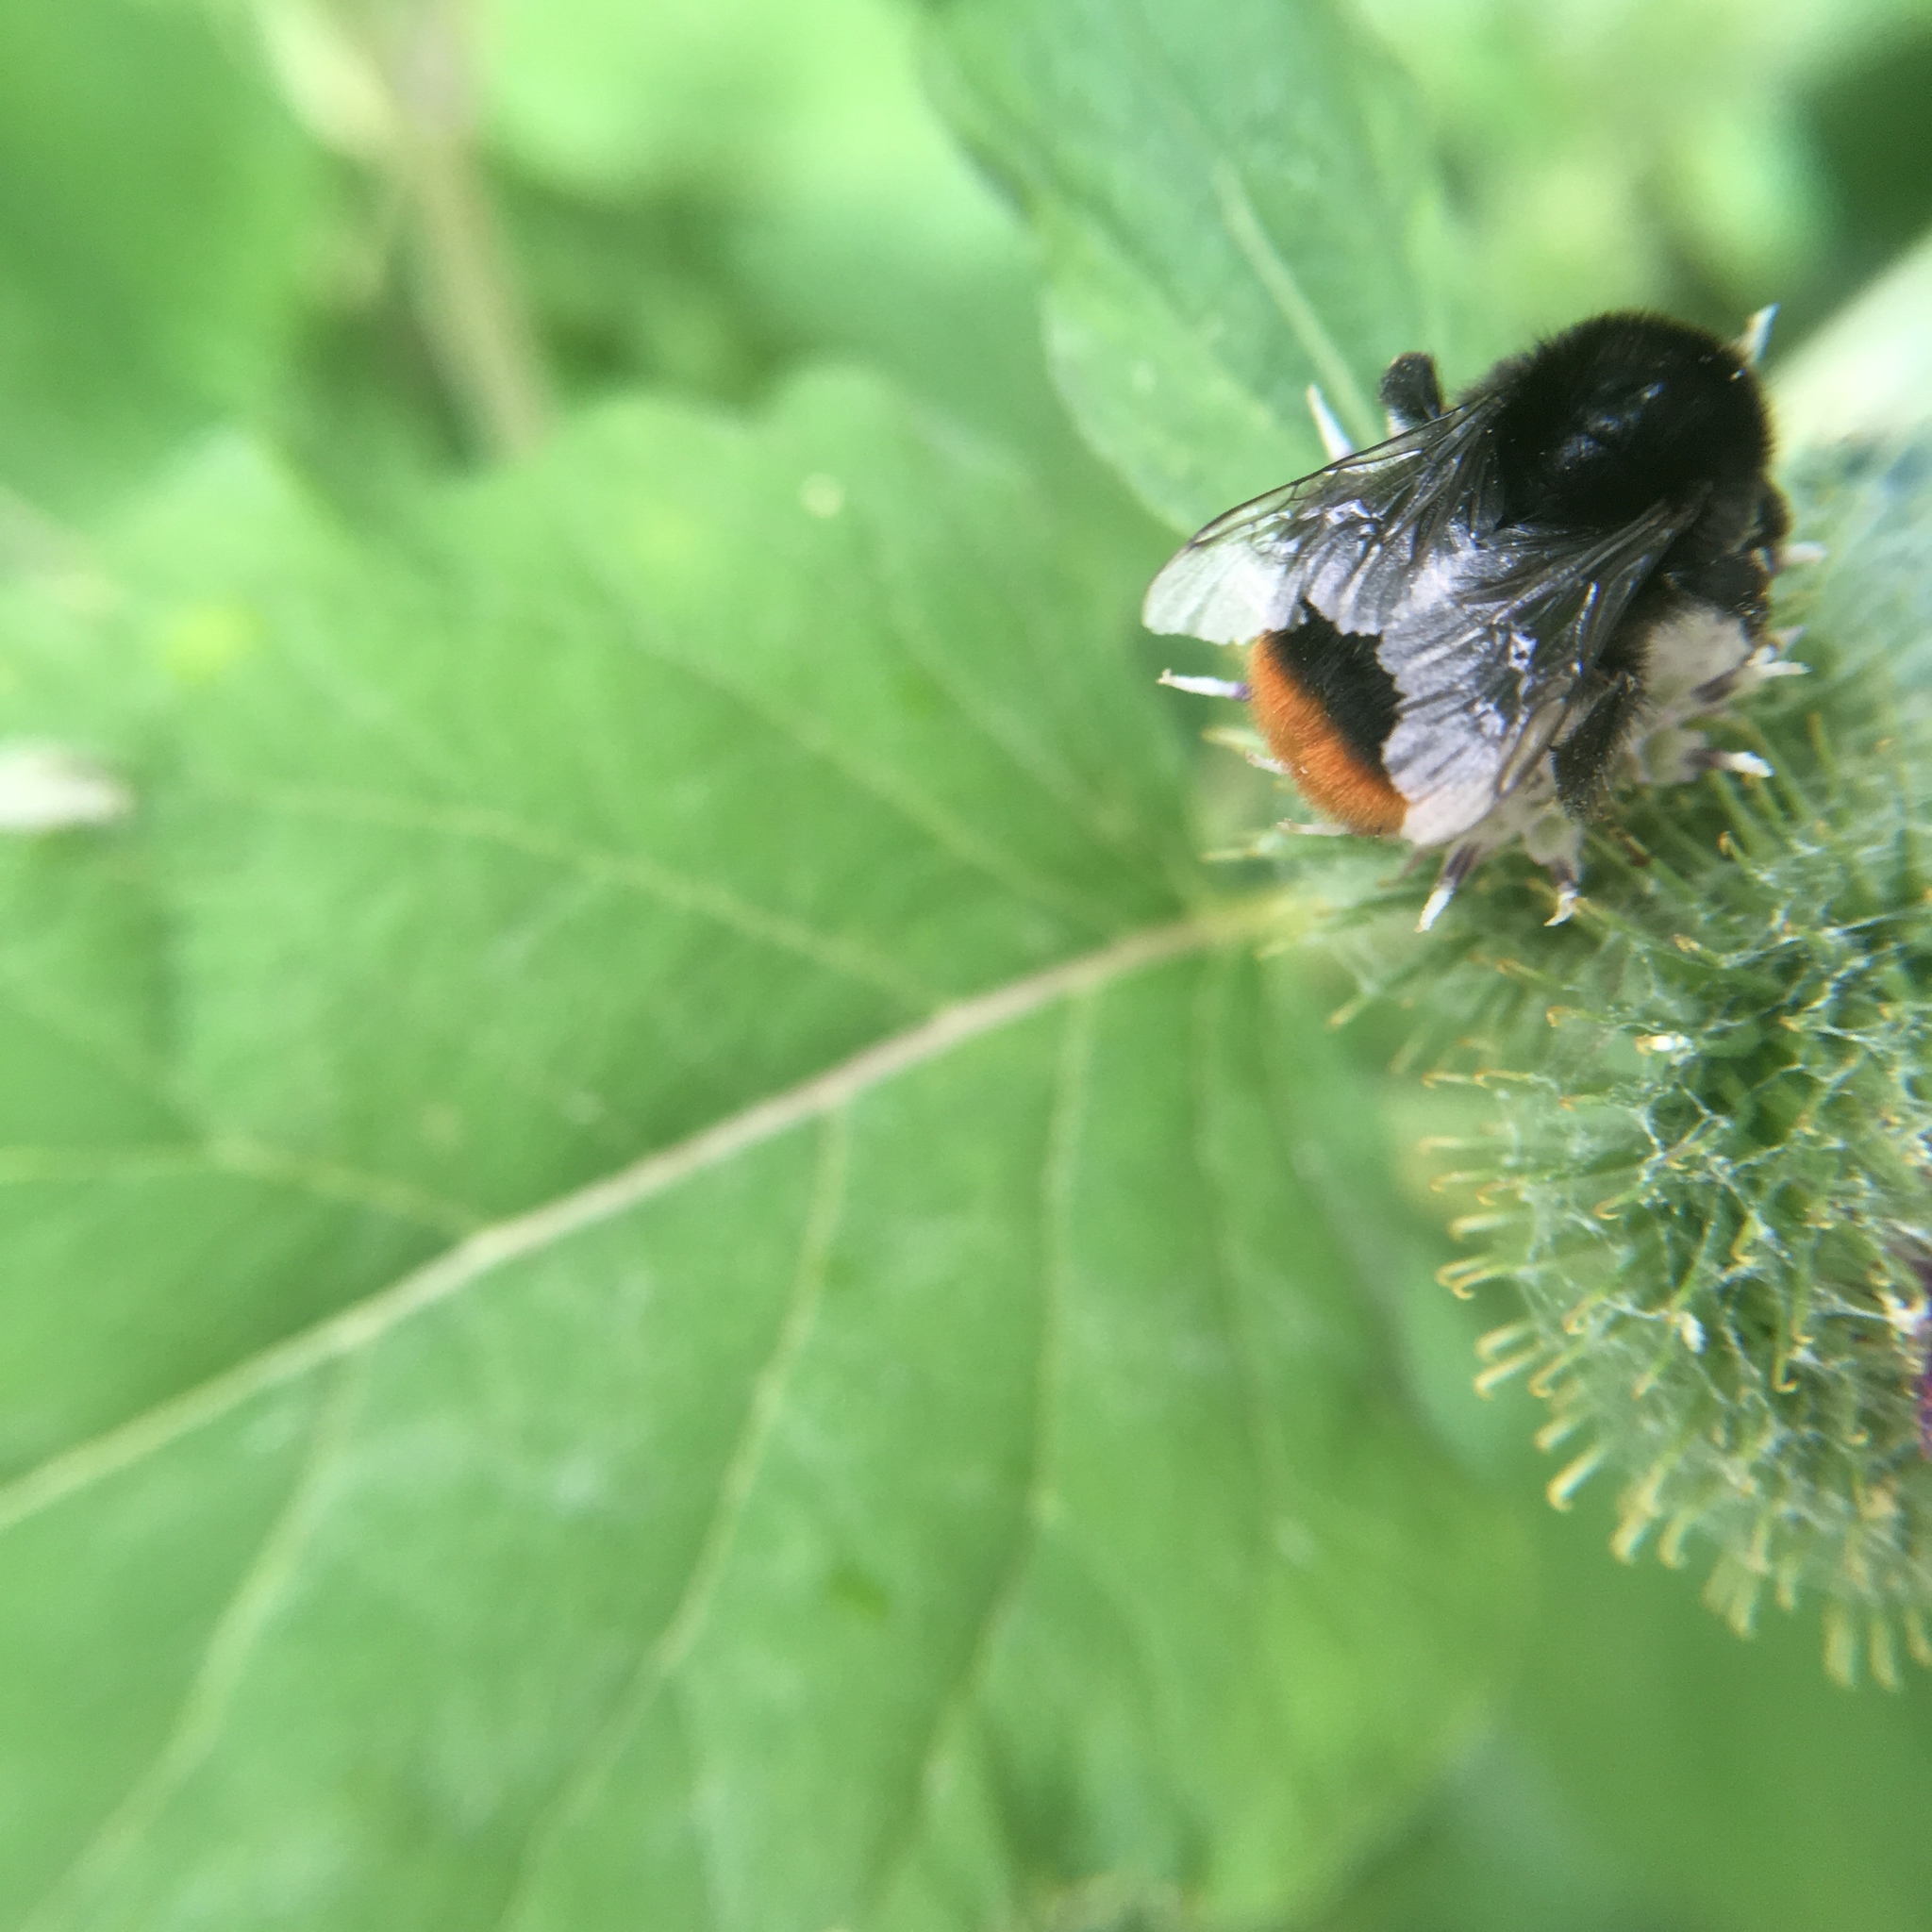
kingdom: Animalia
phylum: Arthropoda
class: Insecta
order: Hymenoptera
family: Apidae
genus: Bombus
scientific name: Bombus lapidarius
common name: Large red-tailed humble-bee
